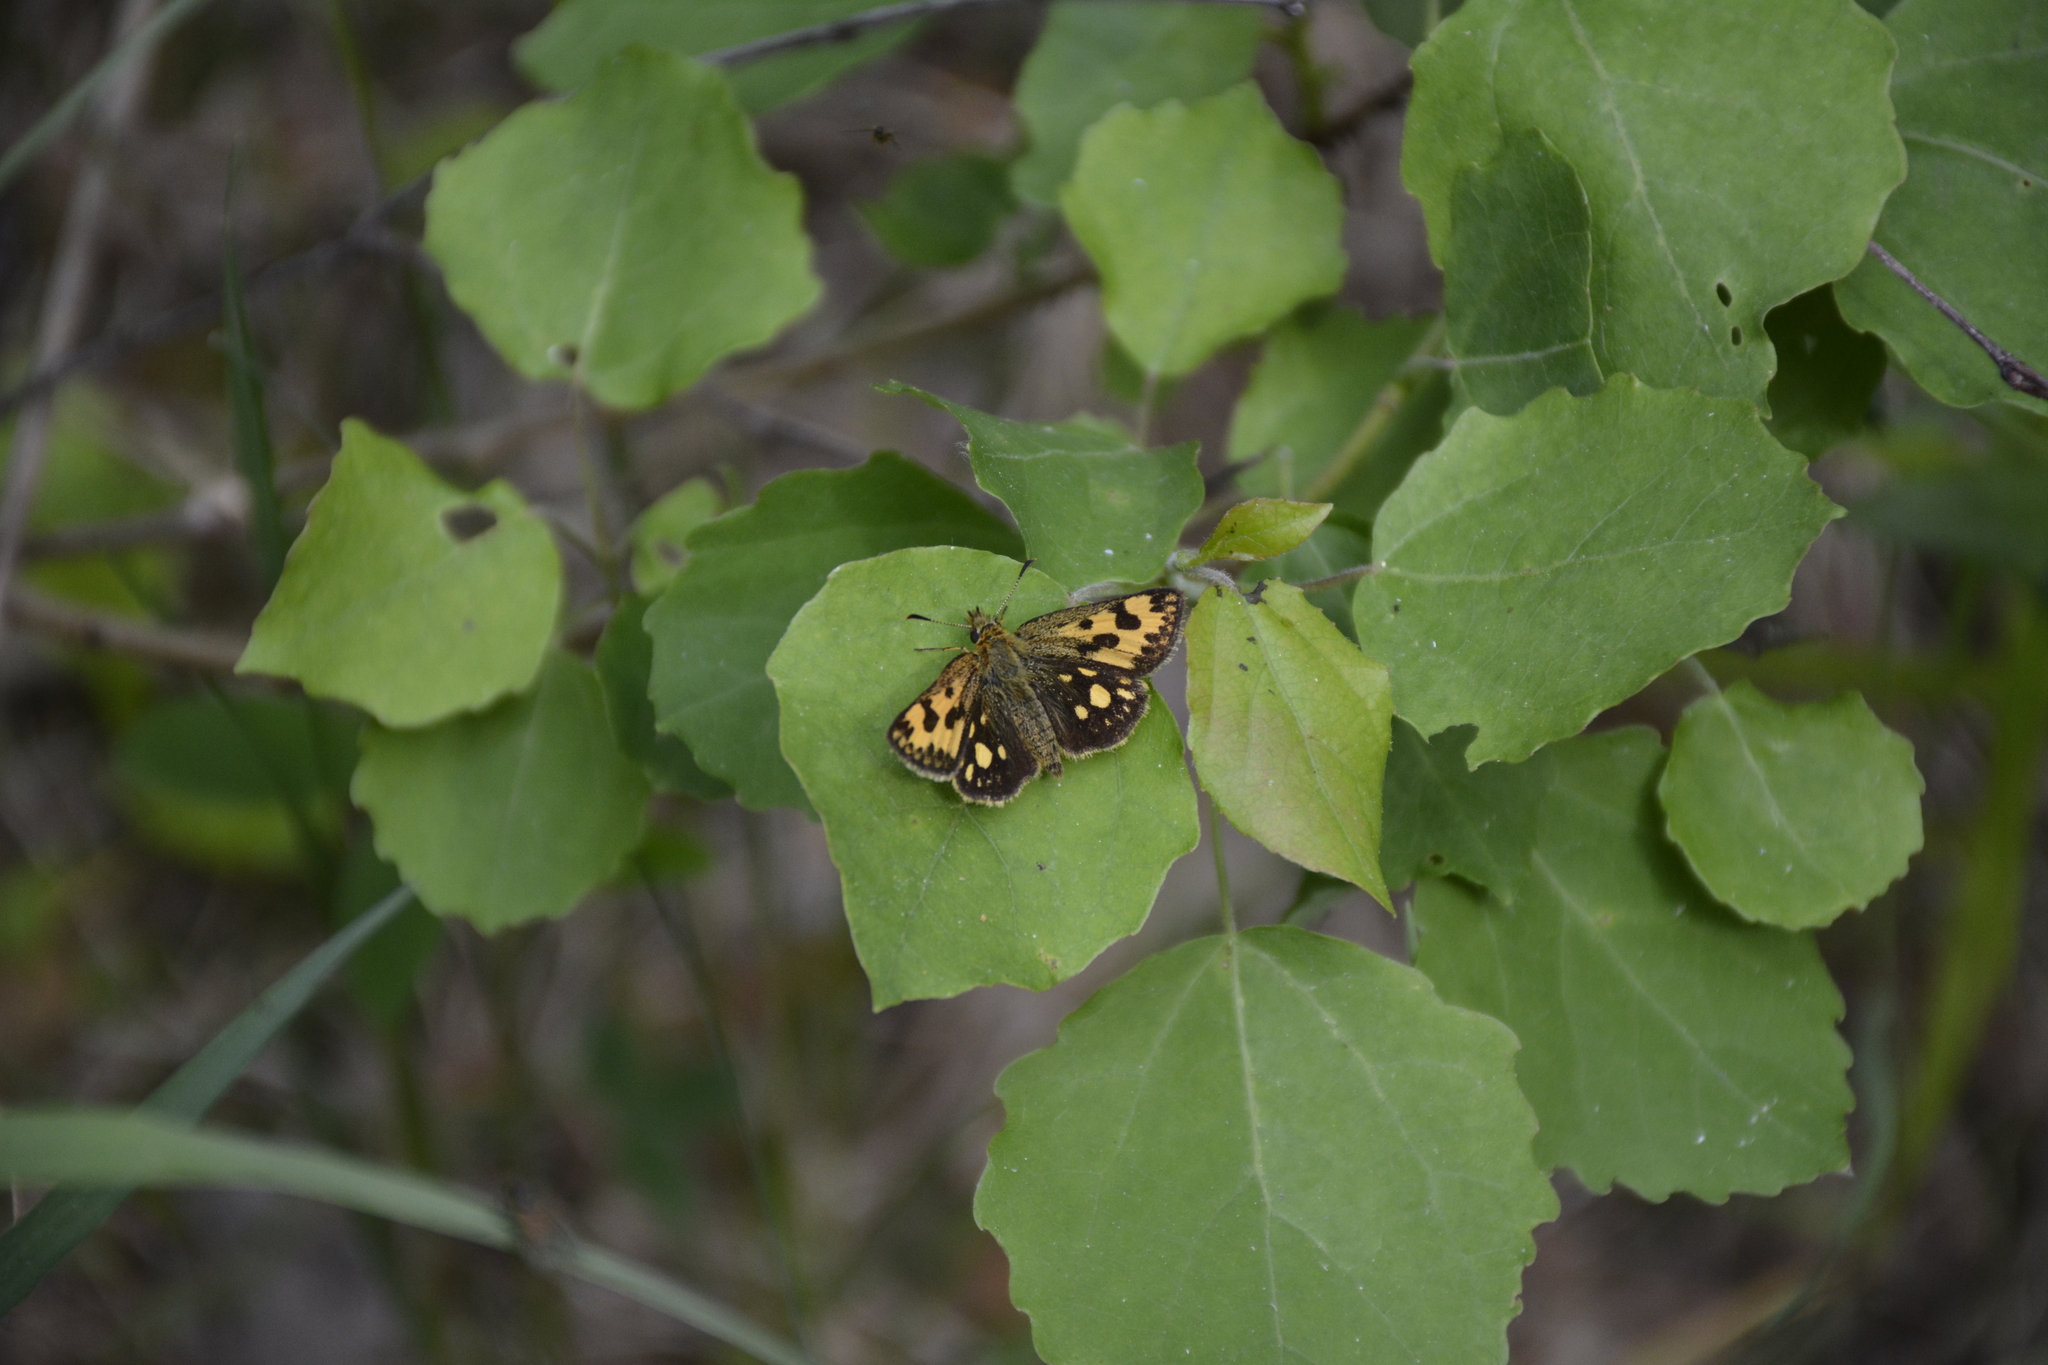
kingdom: Animalia
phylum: Arthropoda
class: Insecta
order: Lepidoptera
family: Hesperiidae
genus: Carterocephalus
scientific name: Carterocephalus silvicola
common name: Northern chequered skipper
